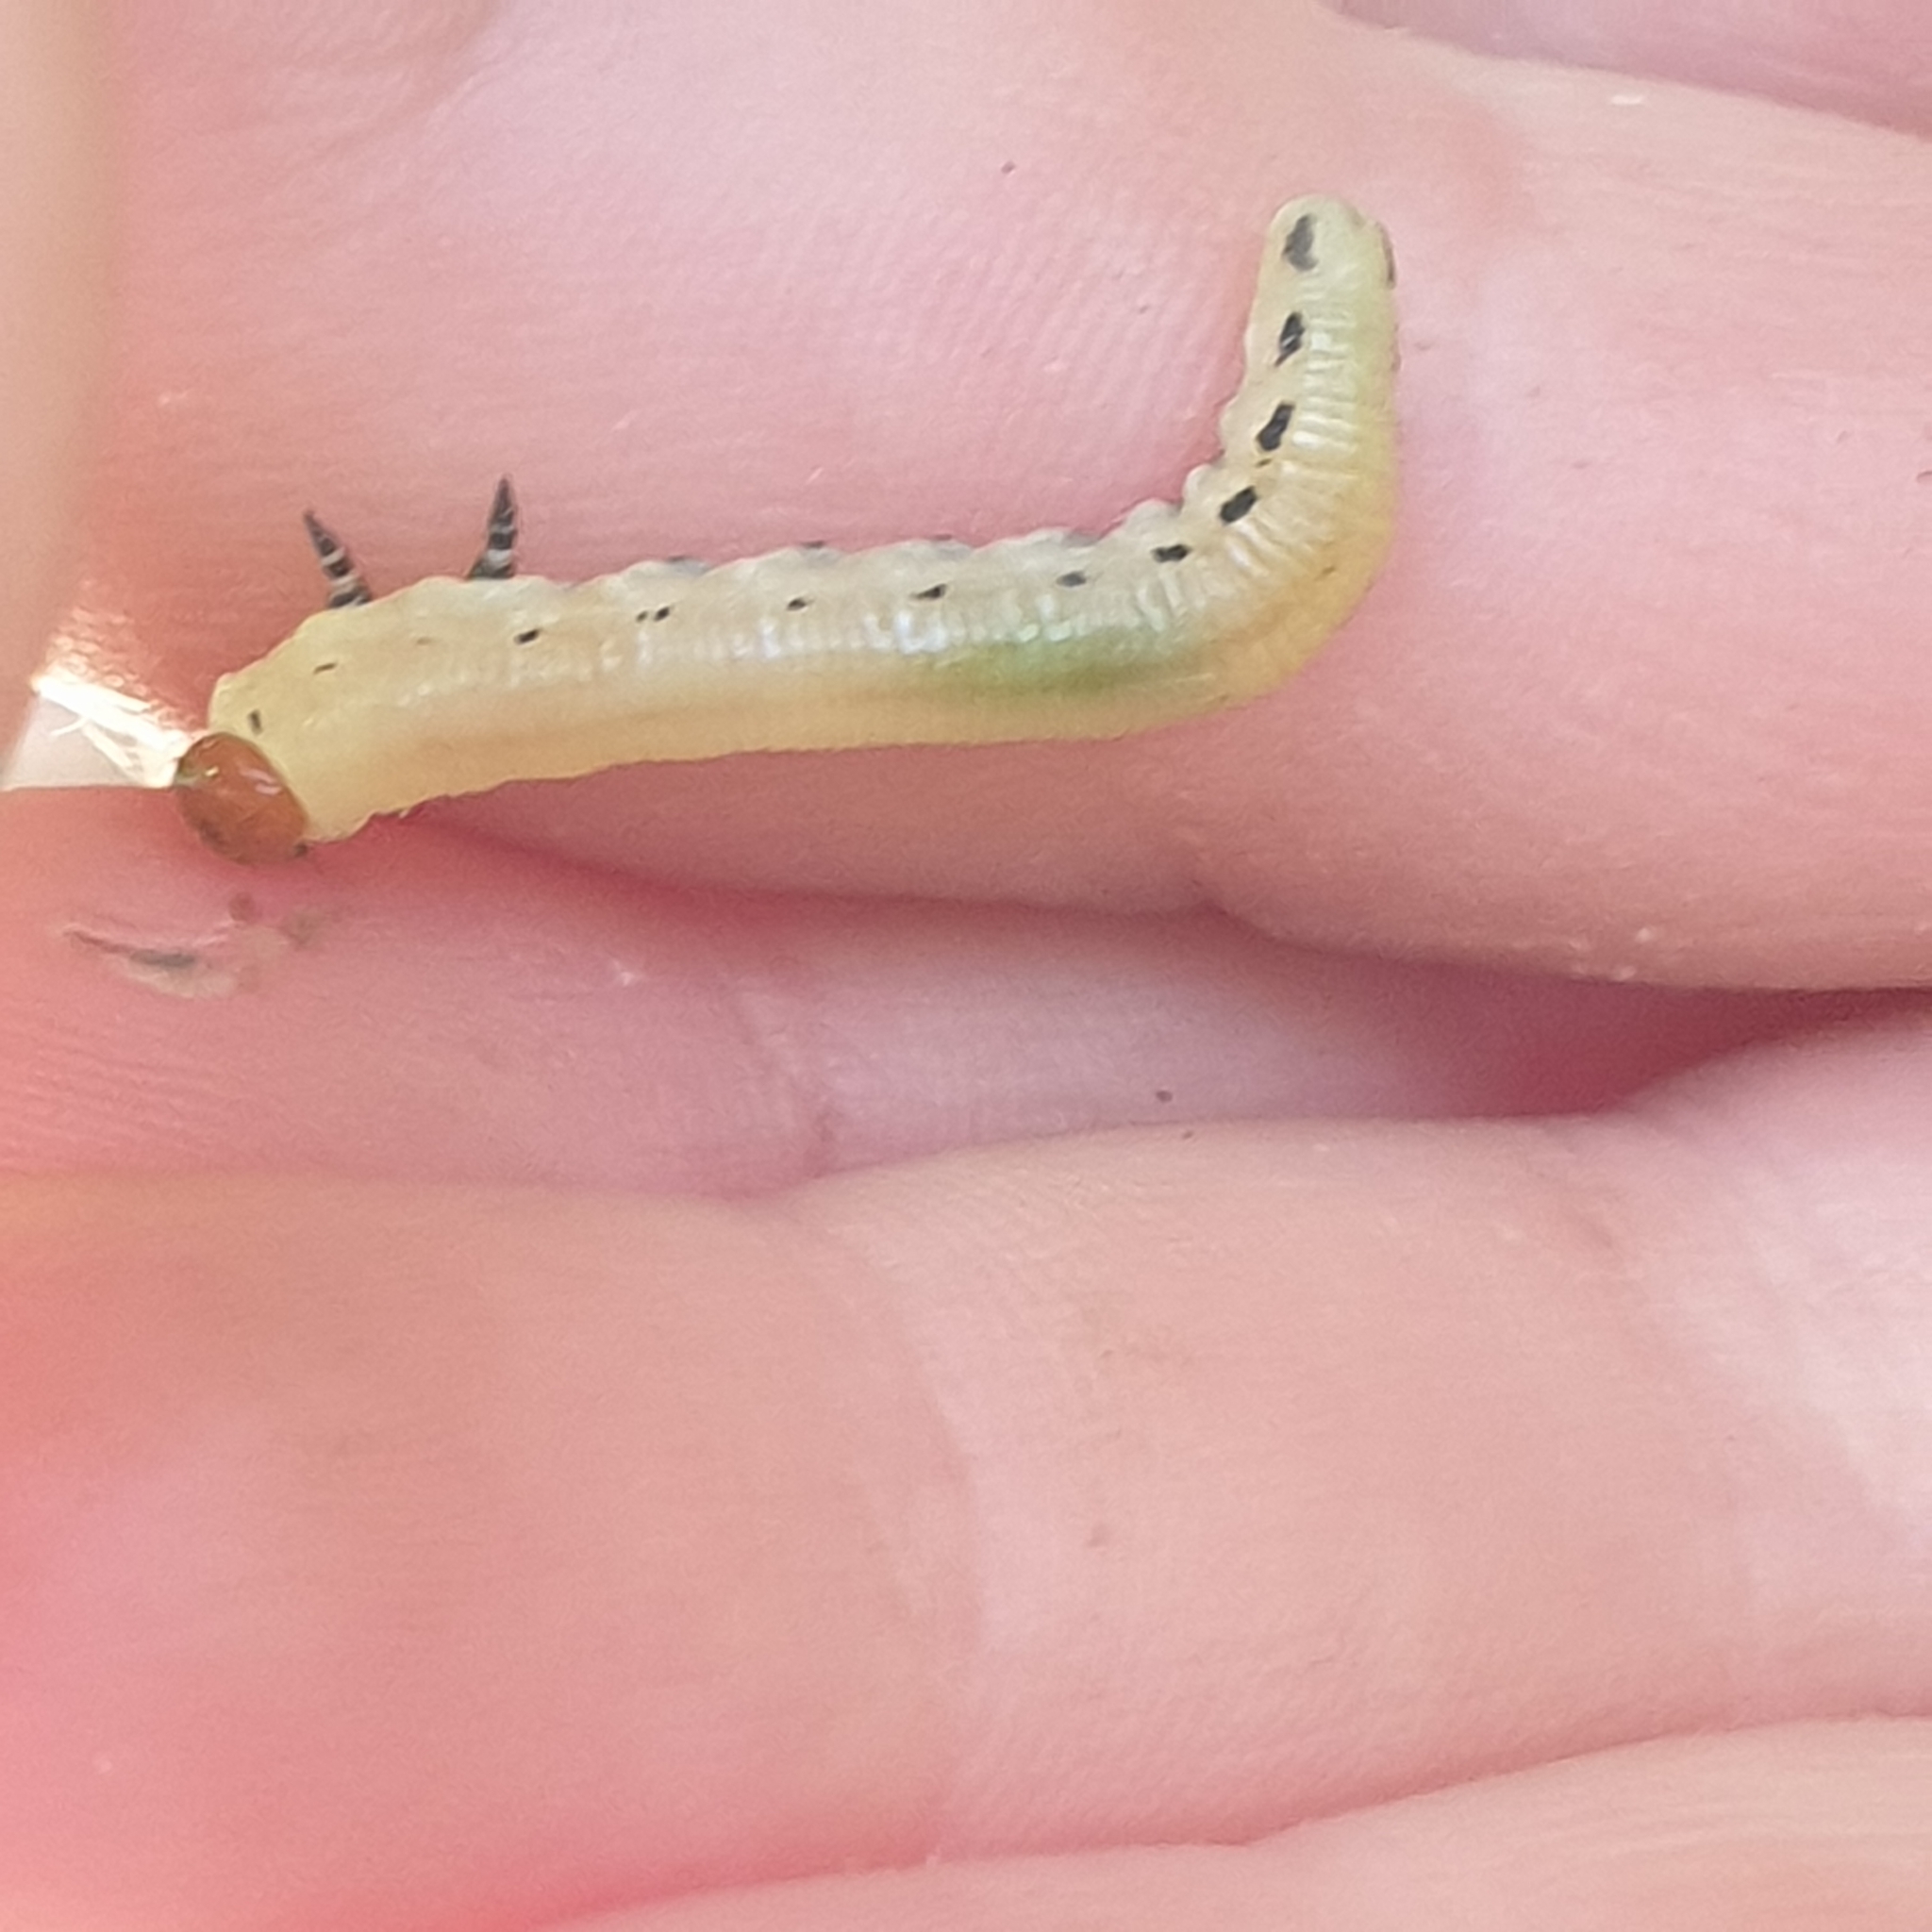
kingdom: Animalia
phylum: Arthropoda
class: Insecta
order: Hymenoptera
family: Diprionidae
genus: Diprion
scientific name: Diprion pini
